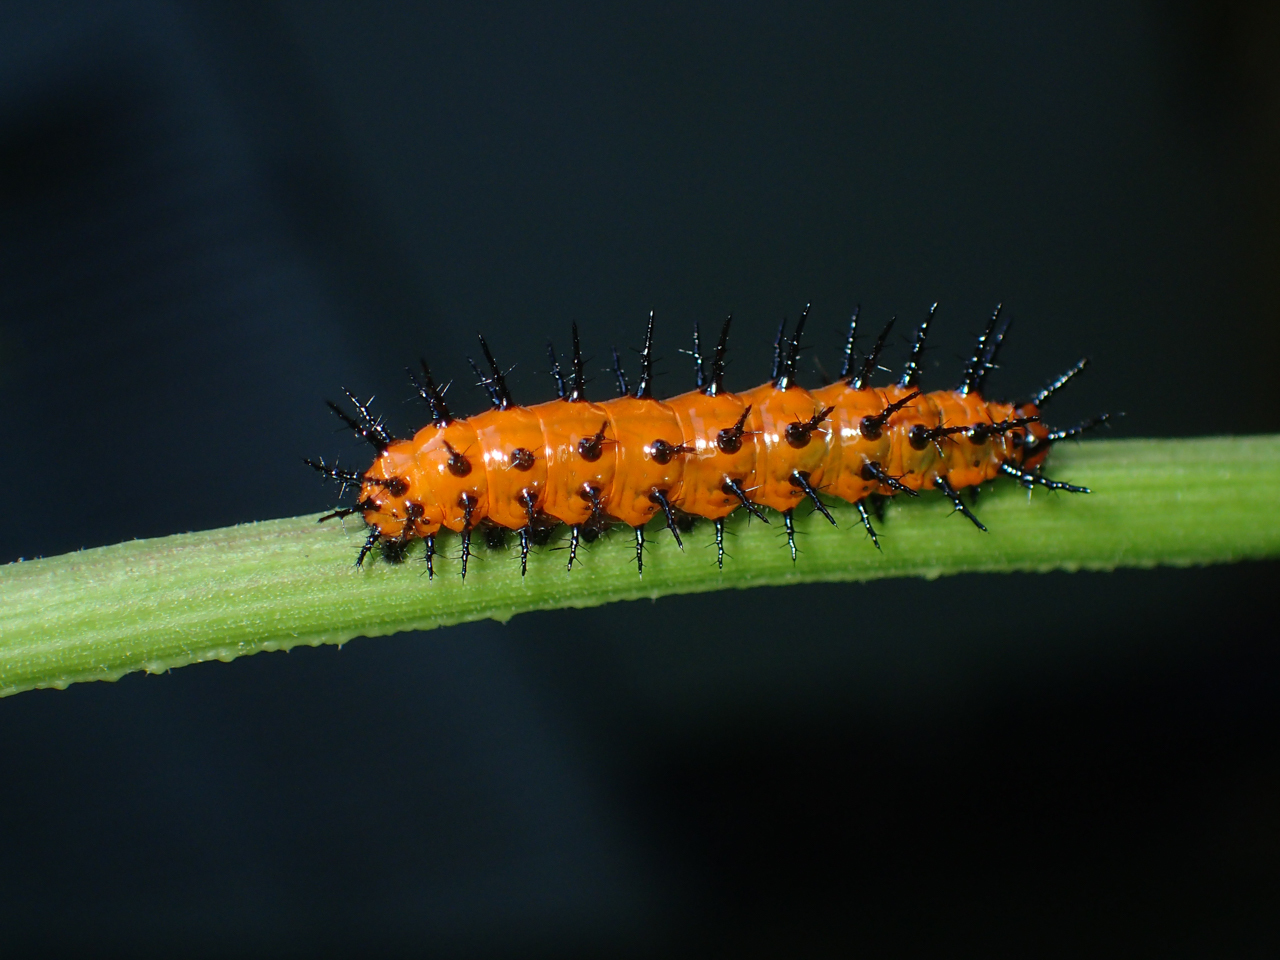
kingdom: Animalia
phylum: Arthropoda
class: Insecta
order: Lepidoptera
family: Nymphalidae
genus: Dione
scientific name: Dione vanillae
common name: Gulf fritillary
